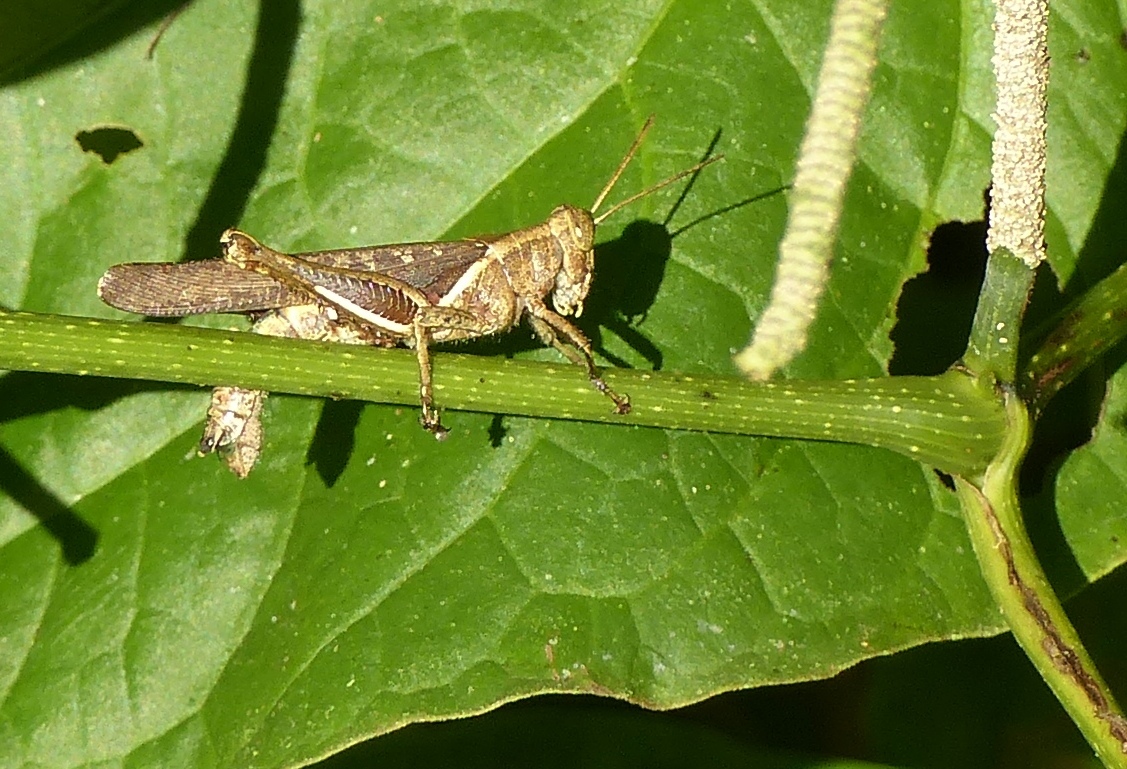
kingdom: Animalia
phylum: Arthropoda
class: Insecta
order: Orthoptera
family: Acrididae
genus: Abracris
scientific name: Abracris flavolineata
